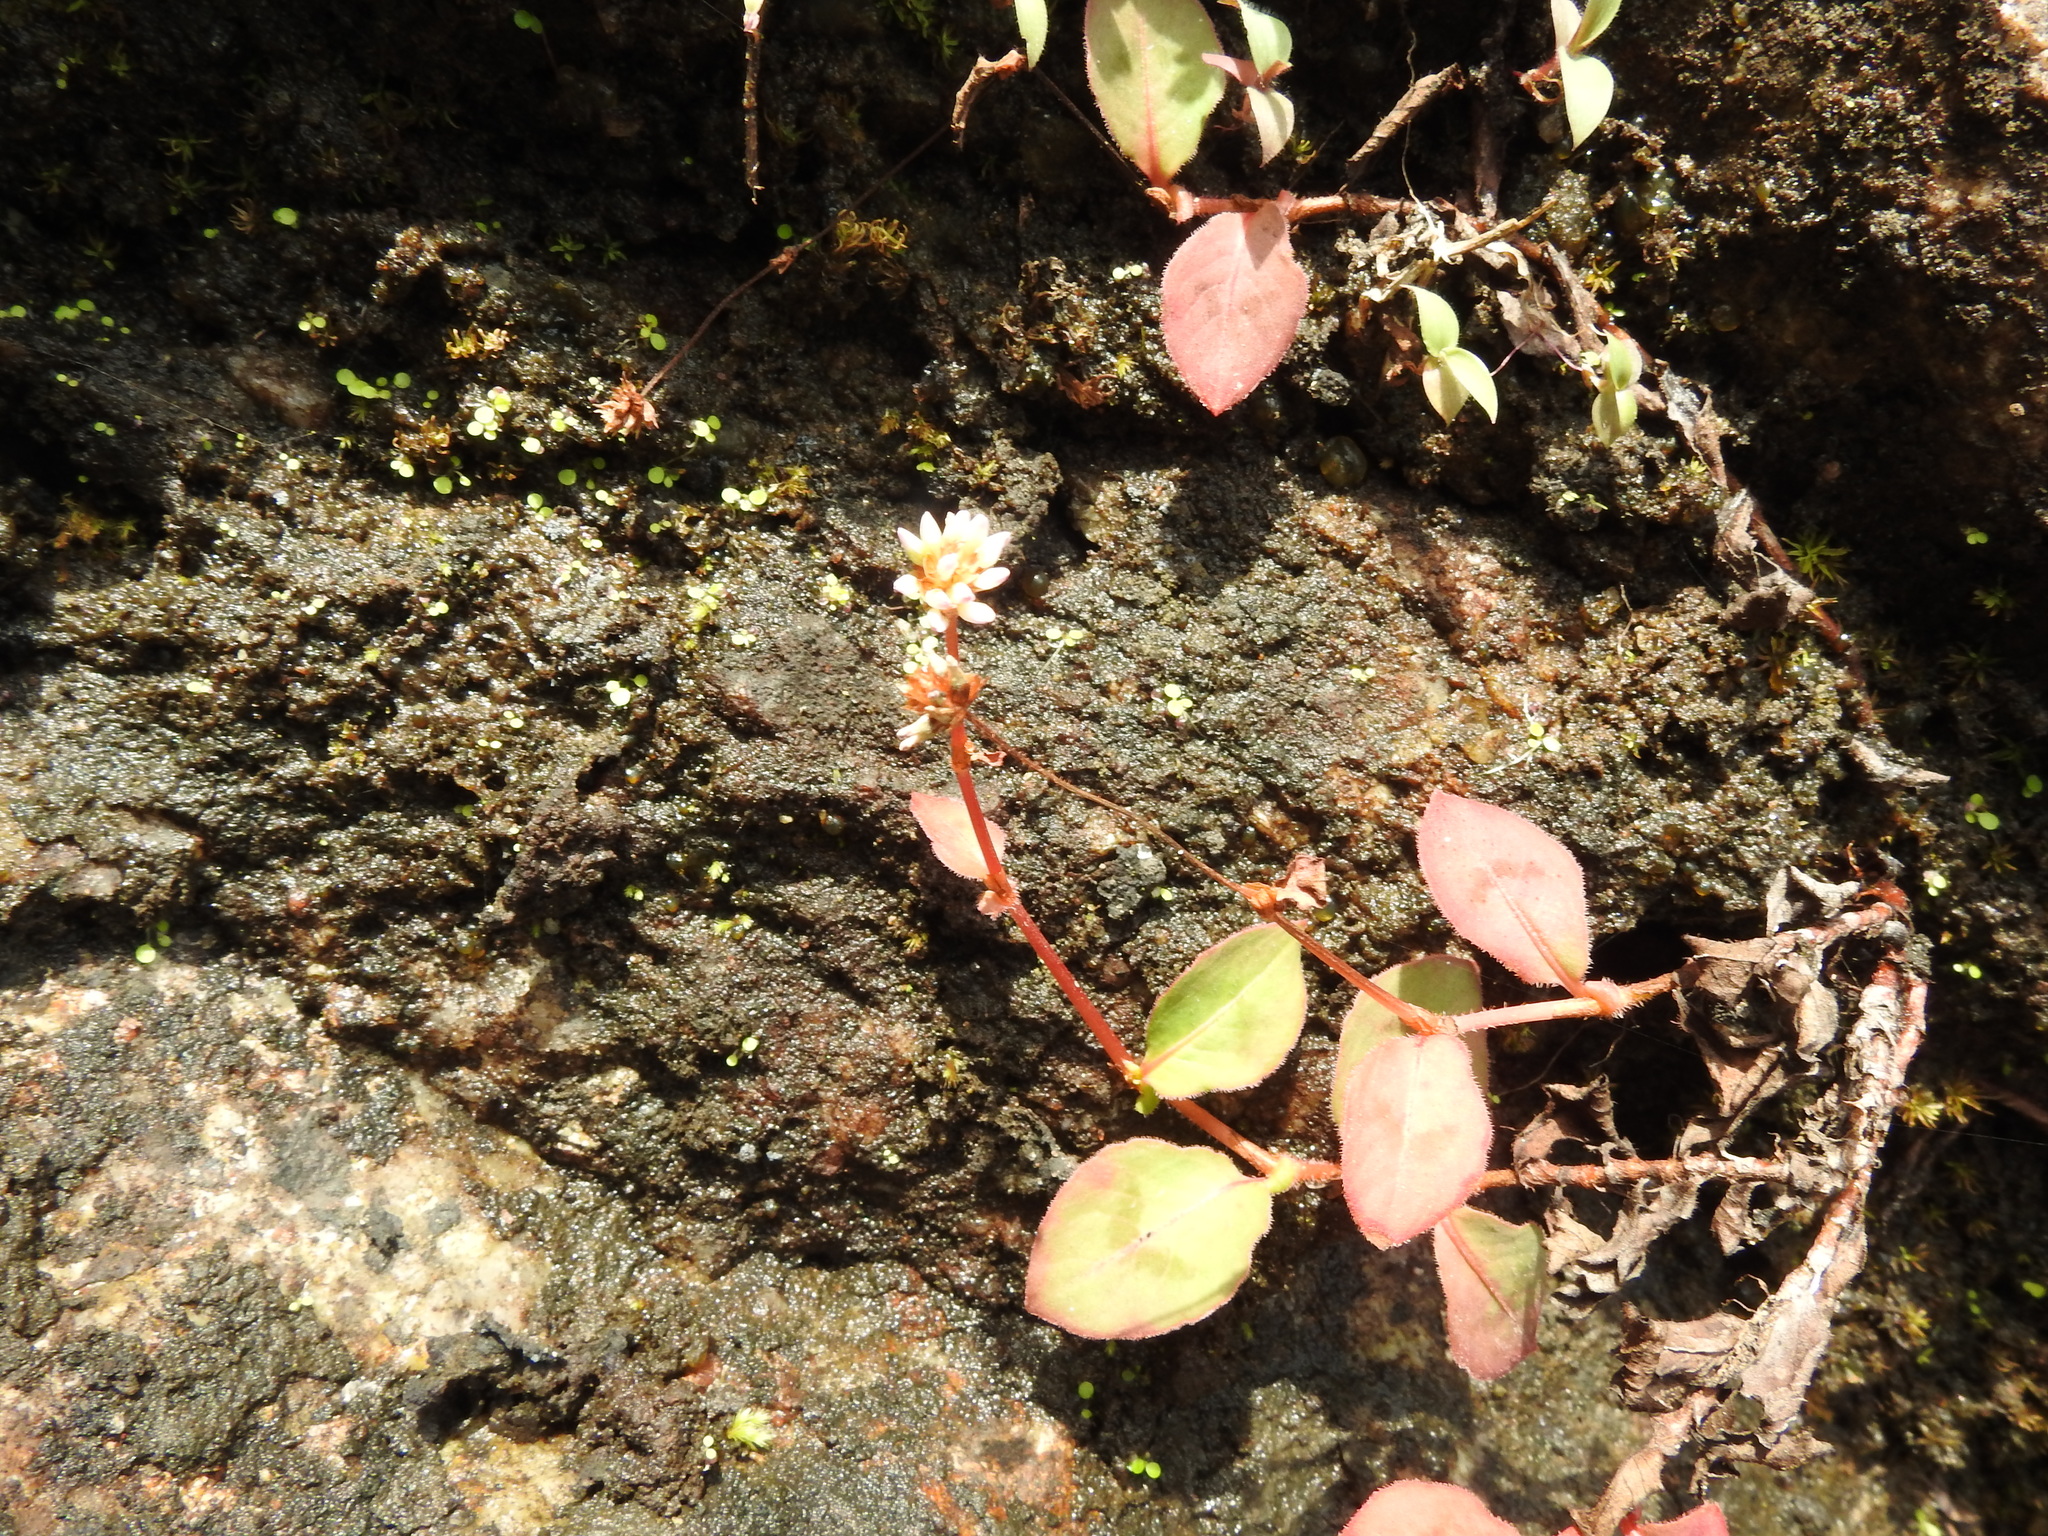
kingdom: Plantae
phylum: Tracheophyta
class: Magnoliopsida
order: Caryophyllales
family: Polygonaceae
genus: Persicaria
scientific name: Persicaria capitata
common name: Pinkhead smartweed
